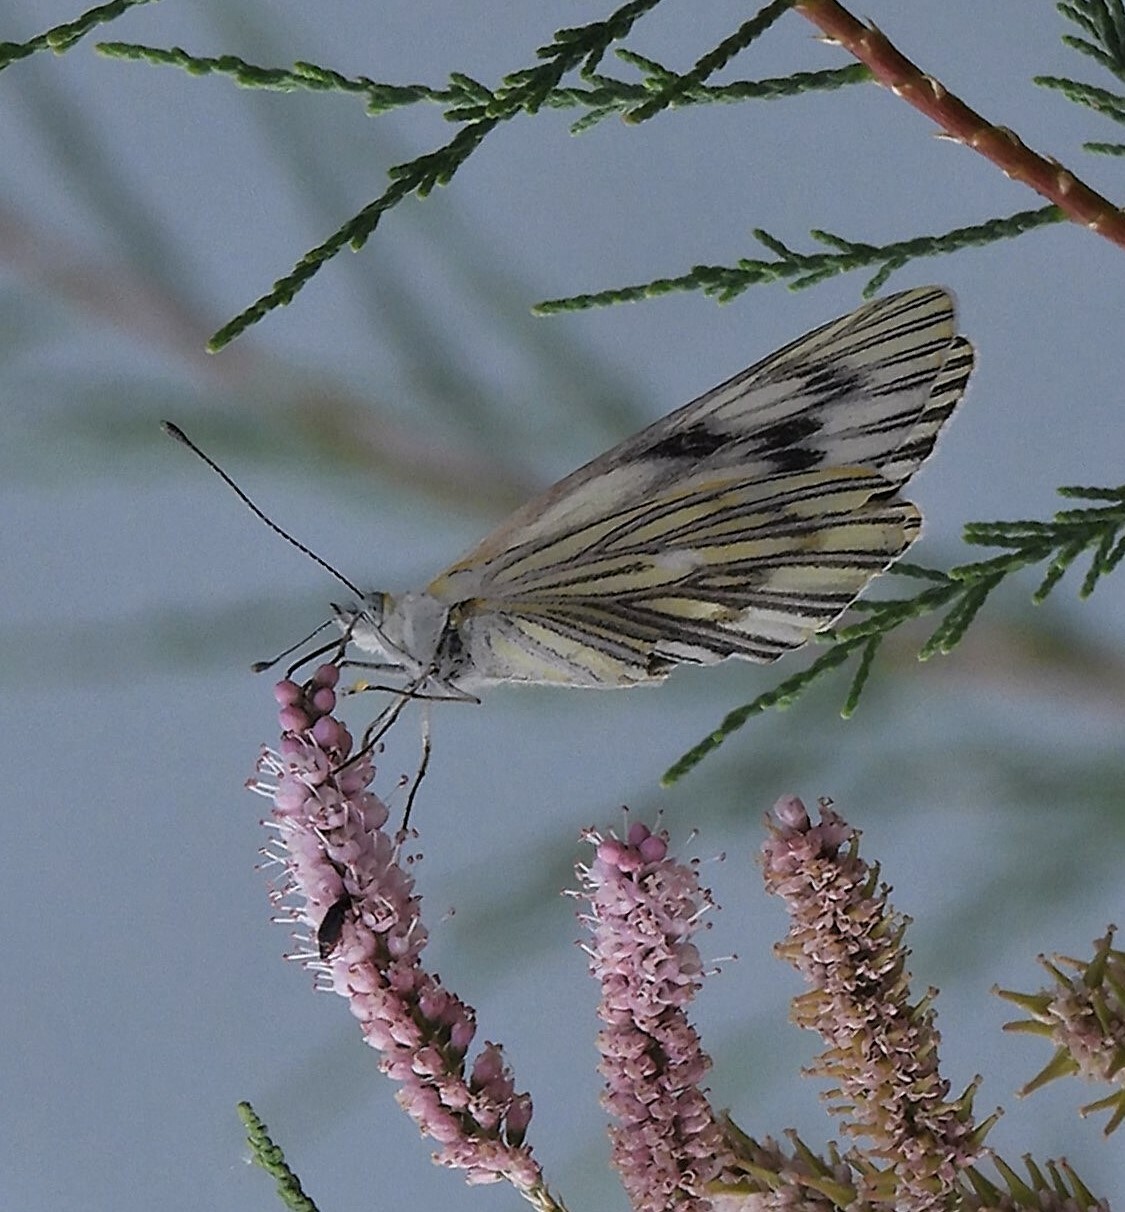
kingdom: Animalia
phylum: Arthropoda
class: Insecta
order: Lepidoptera
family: Pieridae
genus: Tatochila
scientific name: Tatochila mercedis
